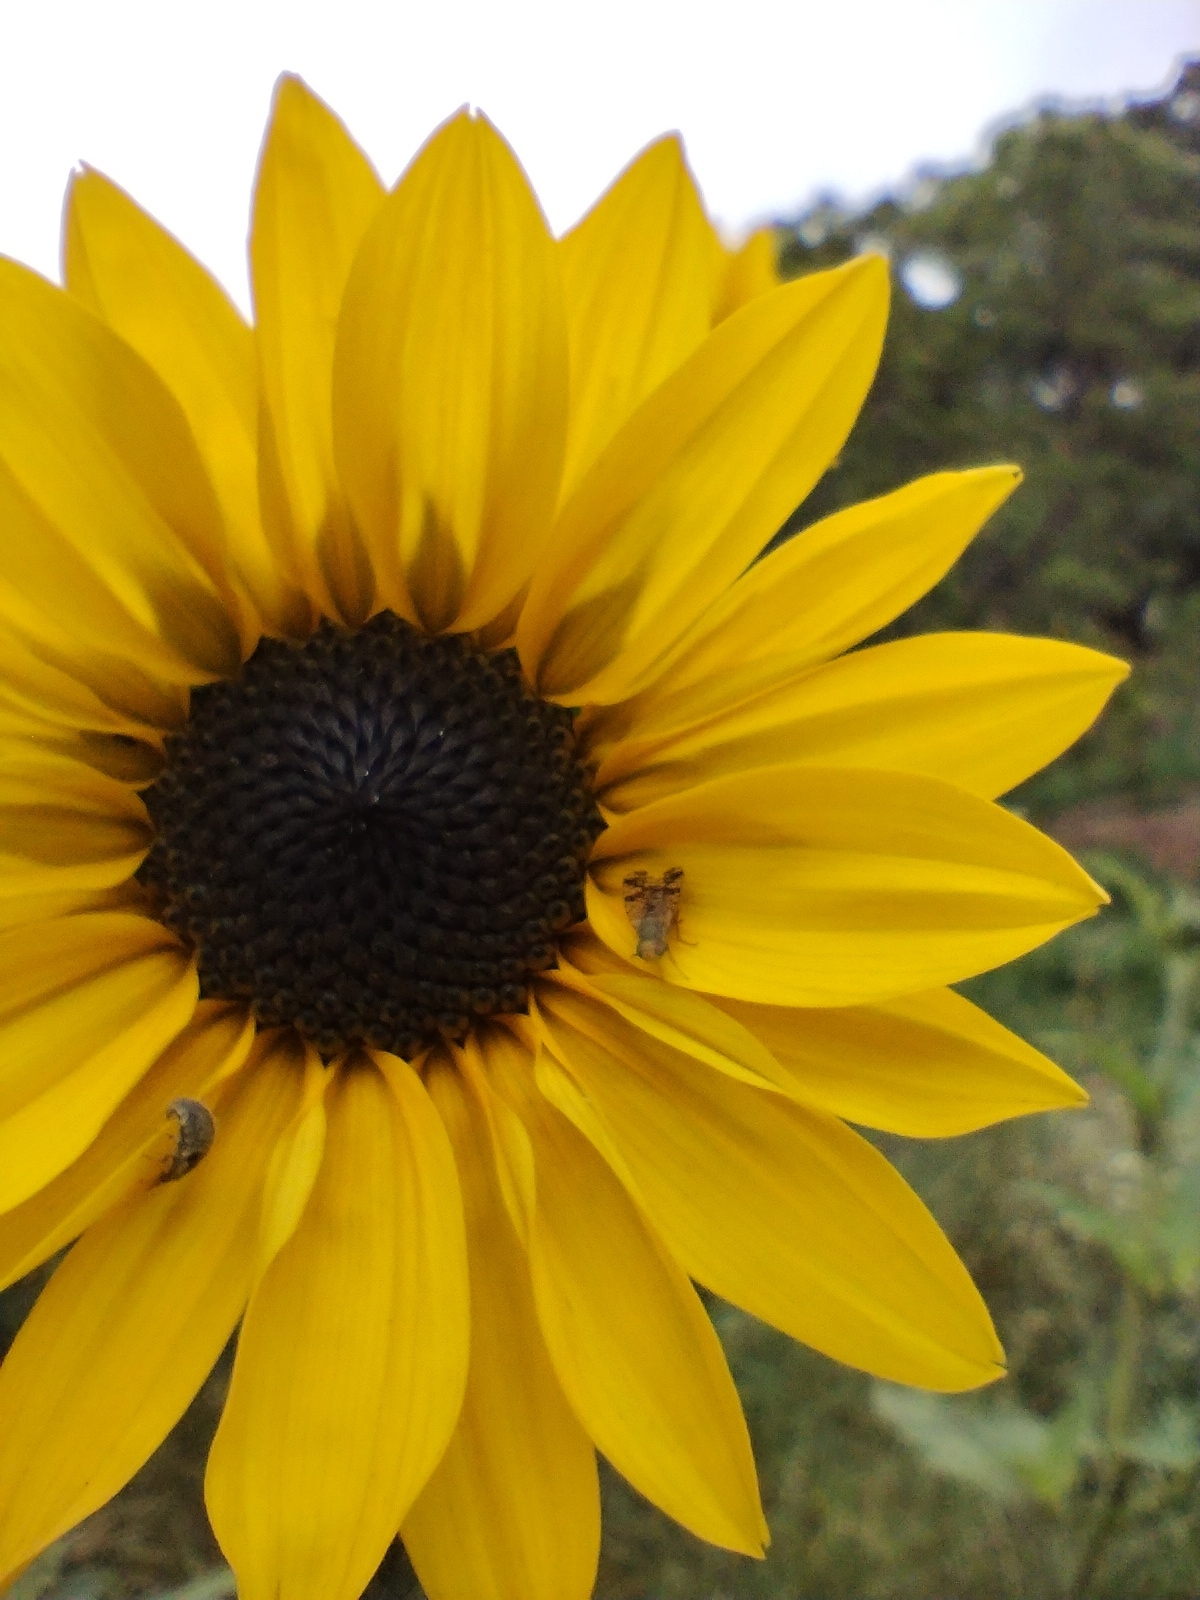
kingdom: Animalia
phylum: Arthropoda
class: Insecta
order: Diptera
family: Tephritidae
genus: Neotephritis
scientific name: Neotephritis finalis
